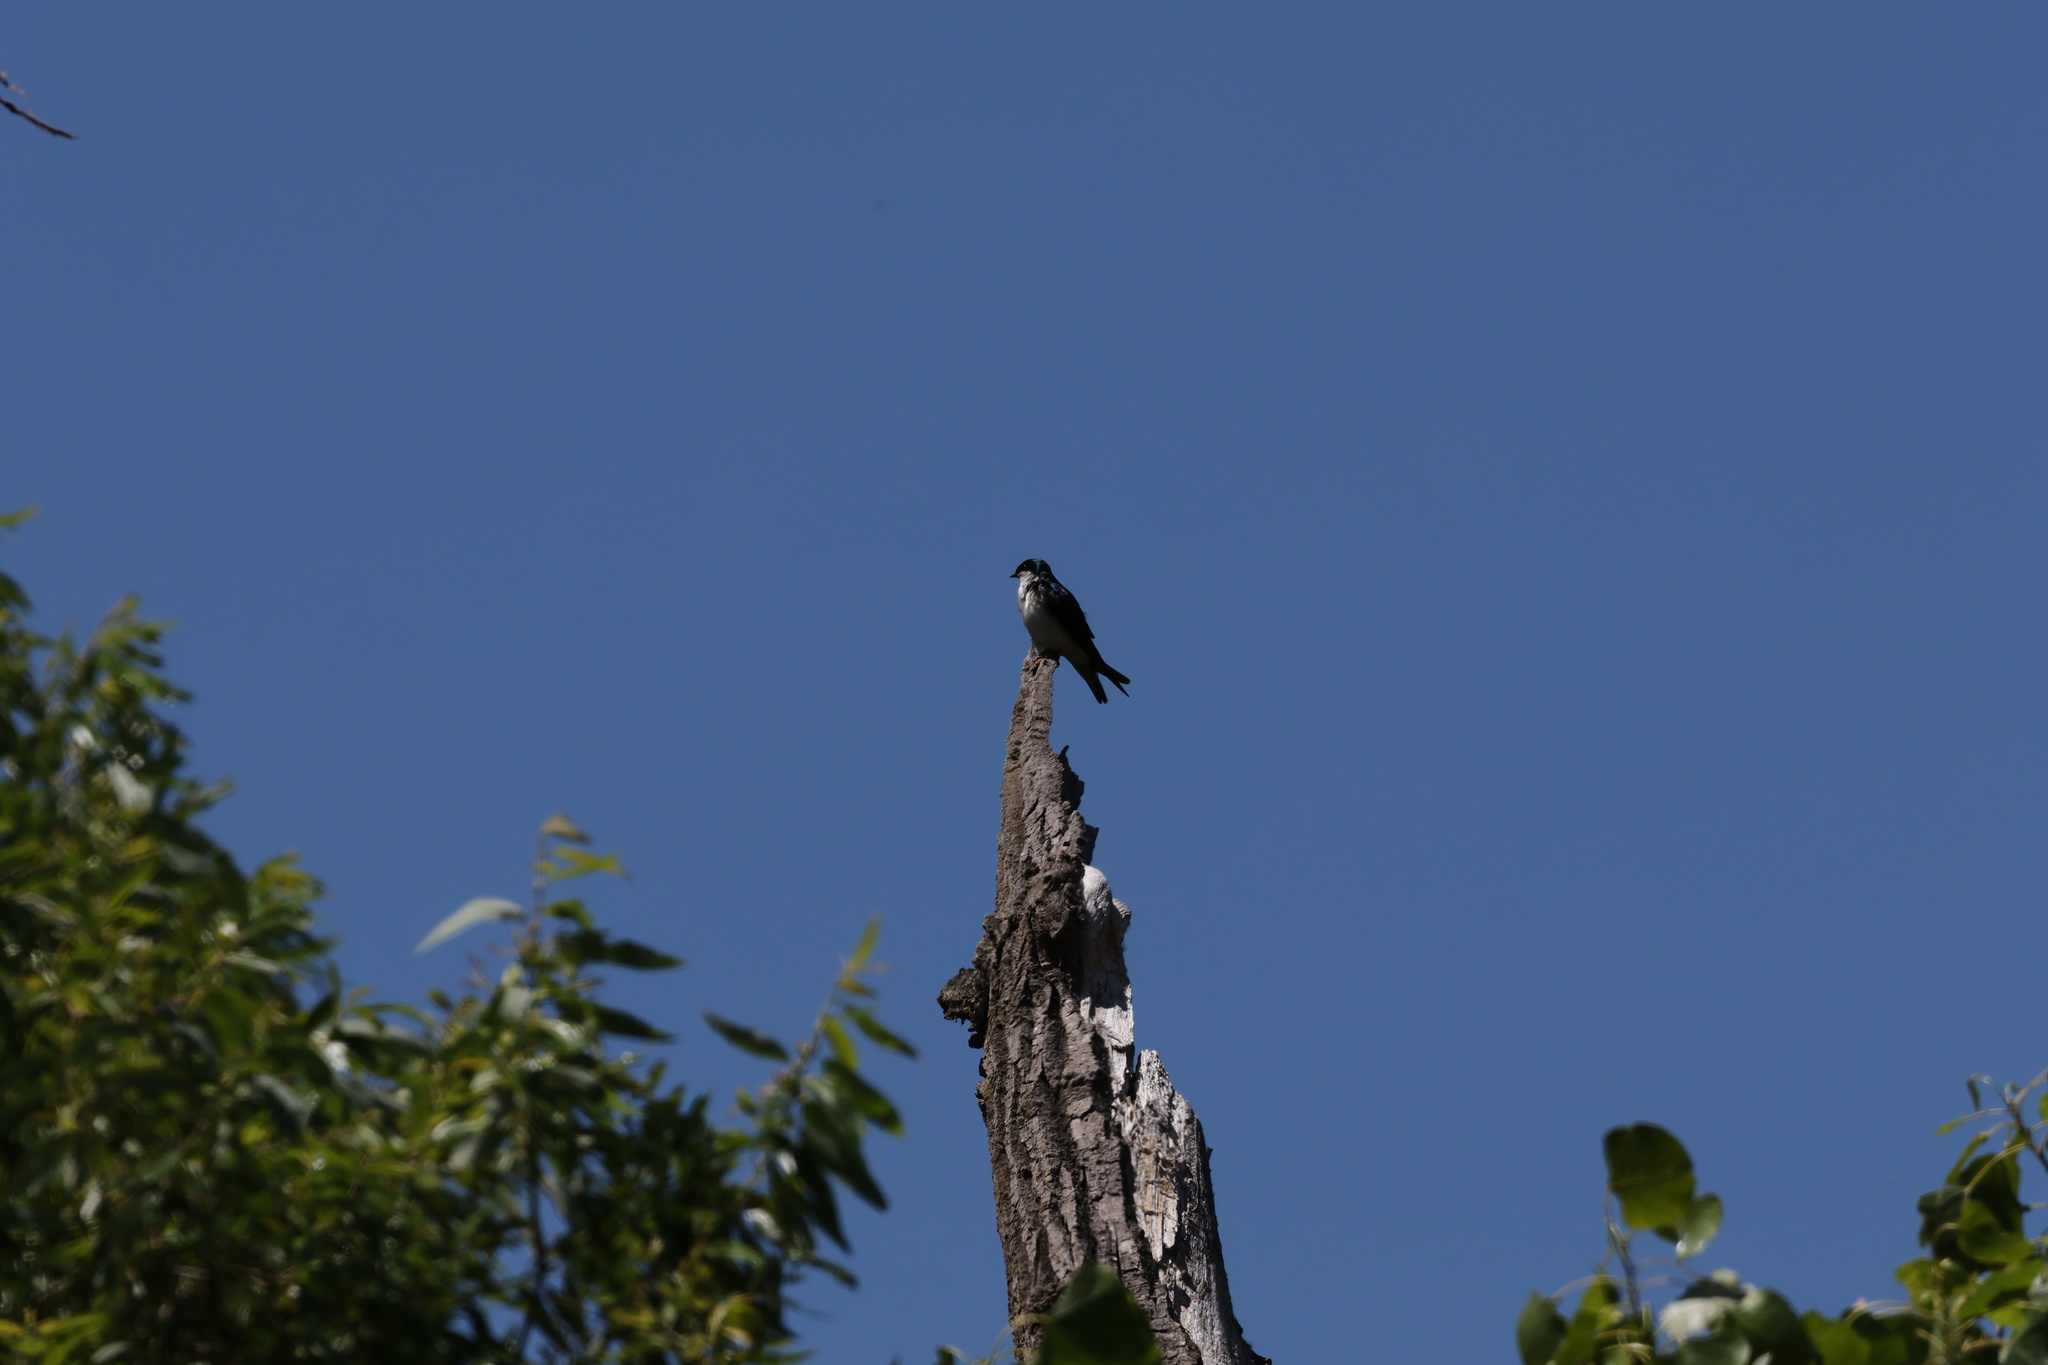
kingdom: Animalia
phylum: Chordata
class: Aves
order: Piciformes
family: Picidae
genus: Melanerpes
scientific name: Melanerpes formicivorus
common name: Acorn woodpecker
